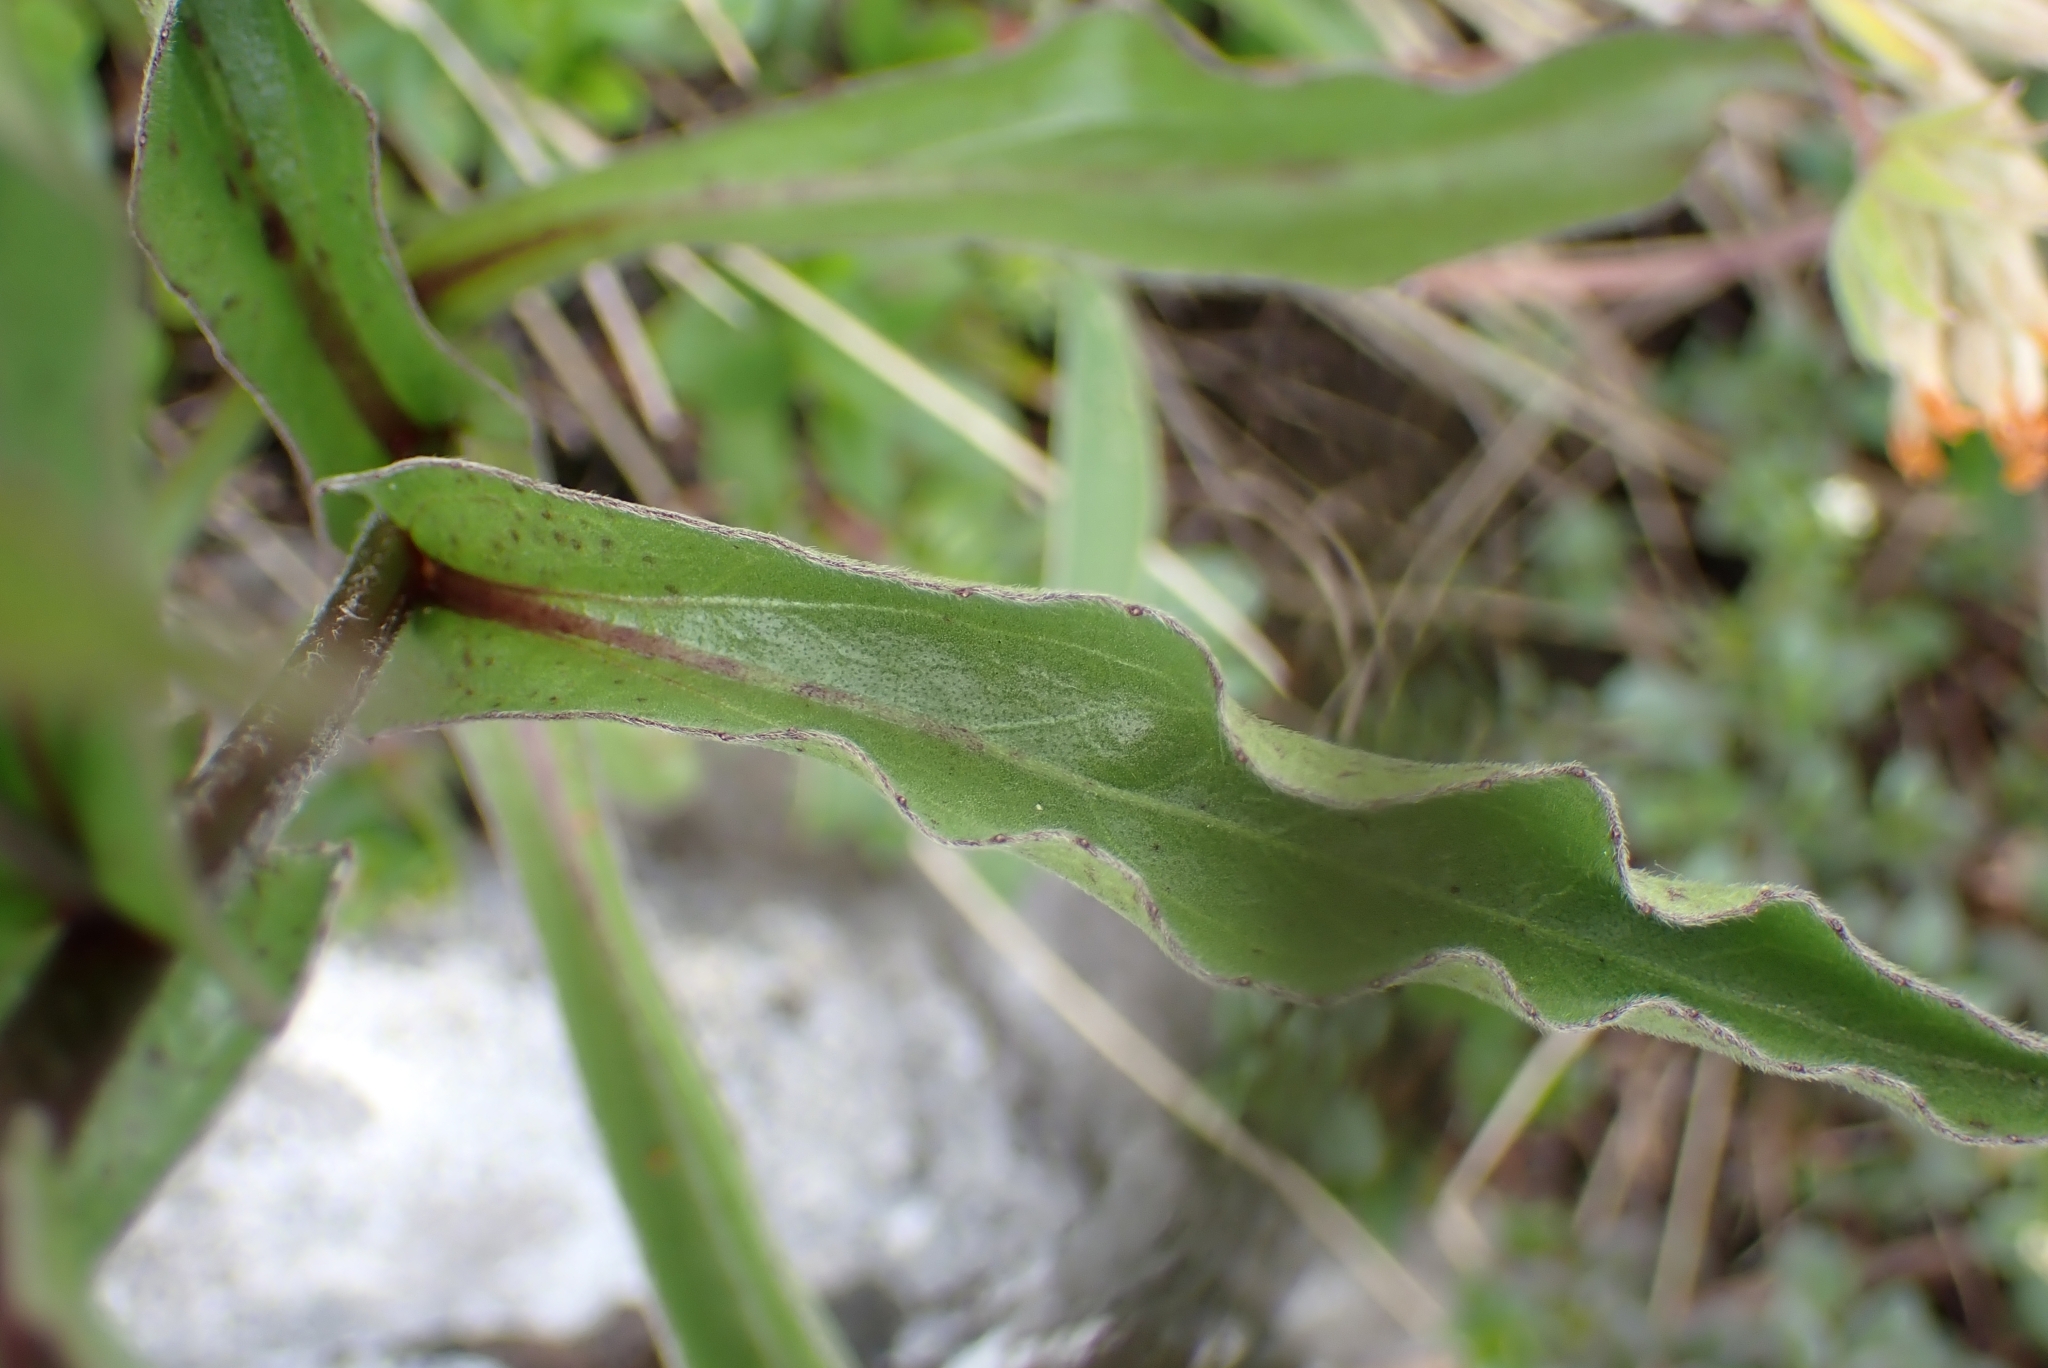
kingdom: Plantae
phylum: Tracheophyta
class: Magnoliopsida
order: Asterales
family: Asteraceae
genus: Buphthalmum
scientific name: Buphthalmum salicifolium
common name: Willow-leaved yellow-oxeye
